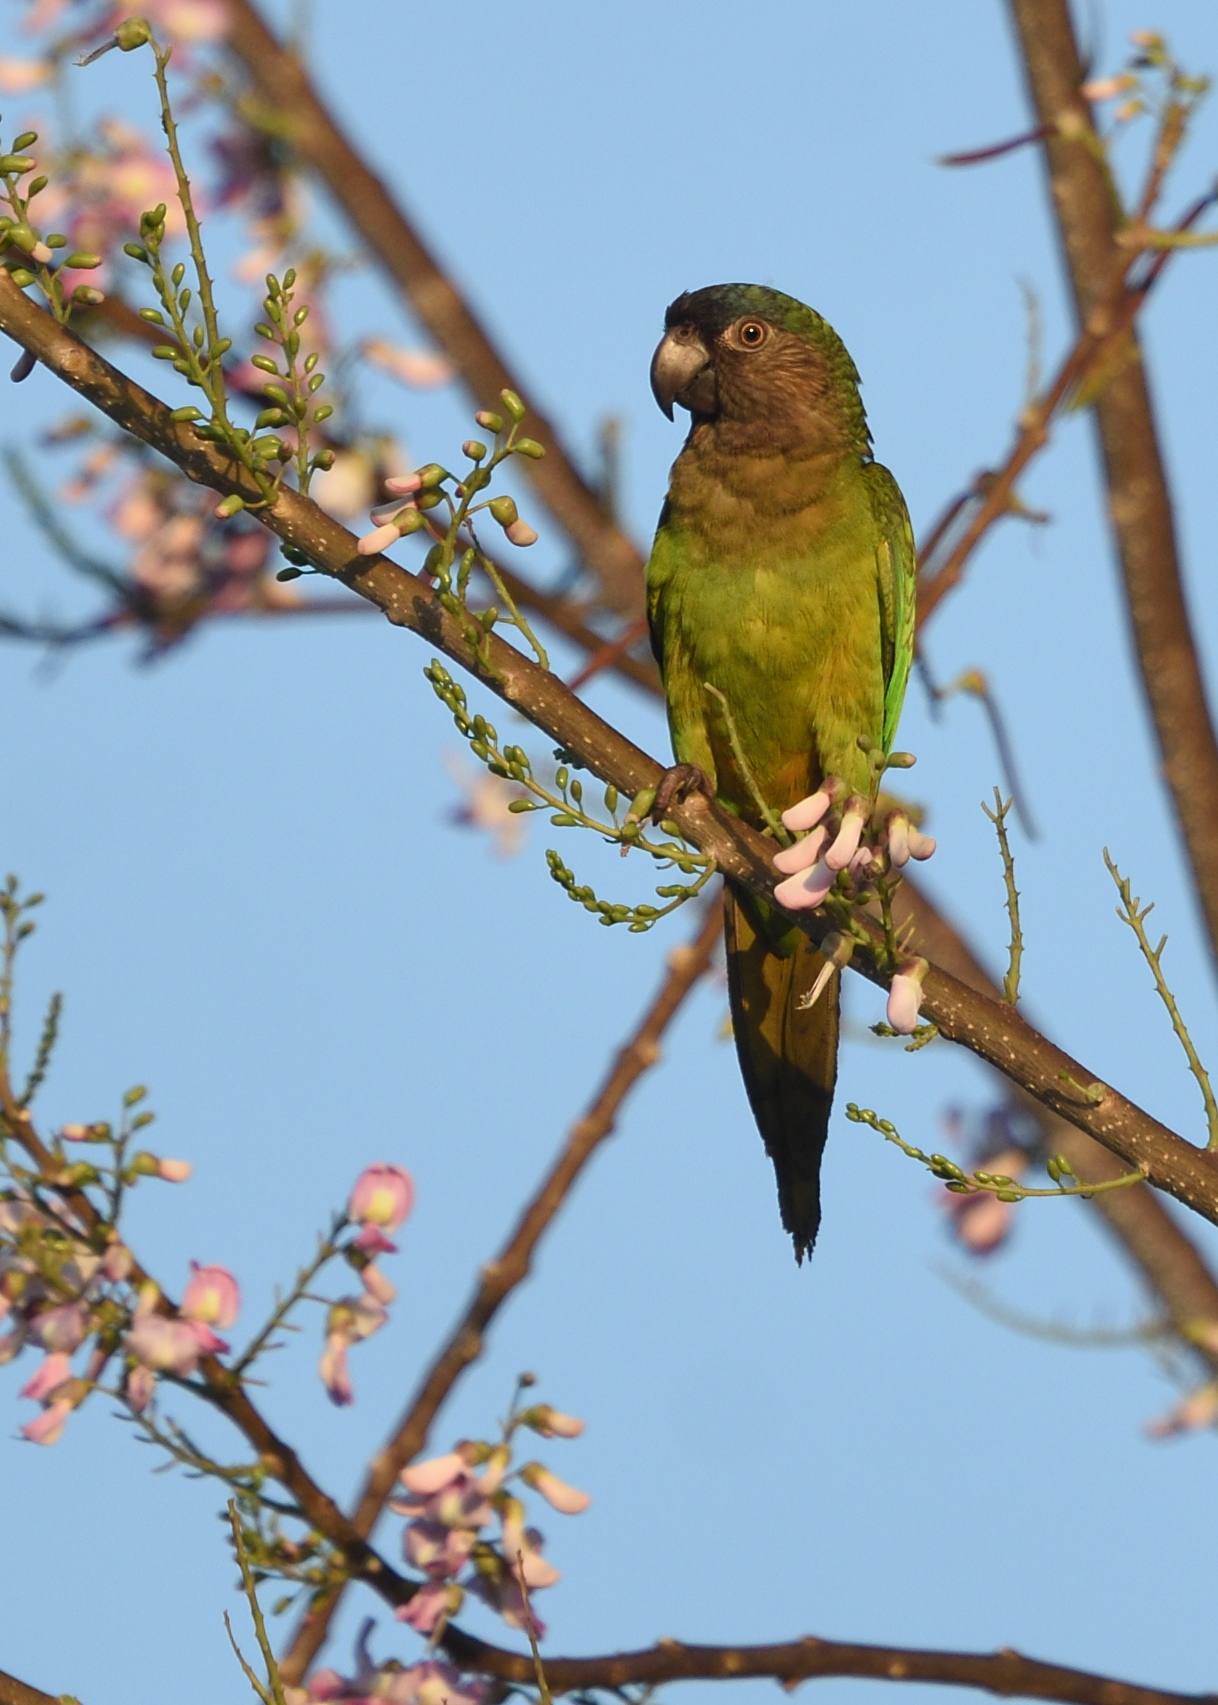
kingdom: Animalia
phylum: Chordata
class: Aves
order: Psittaciformes
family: Psittacidae
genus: Aratinga
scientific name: Aratinga pertinax
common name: Brown-throated parakeet
